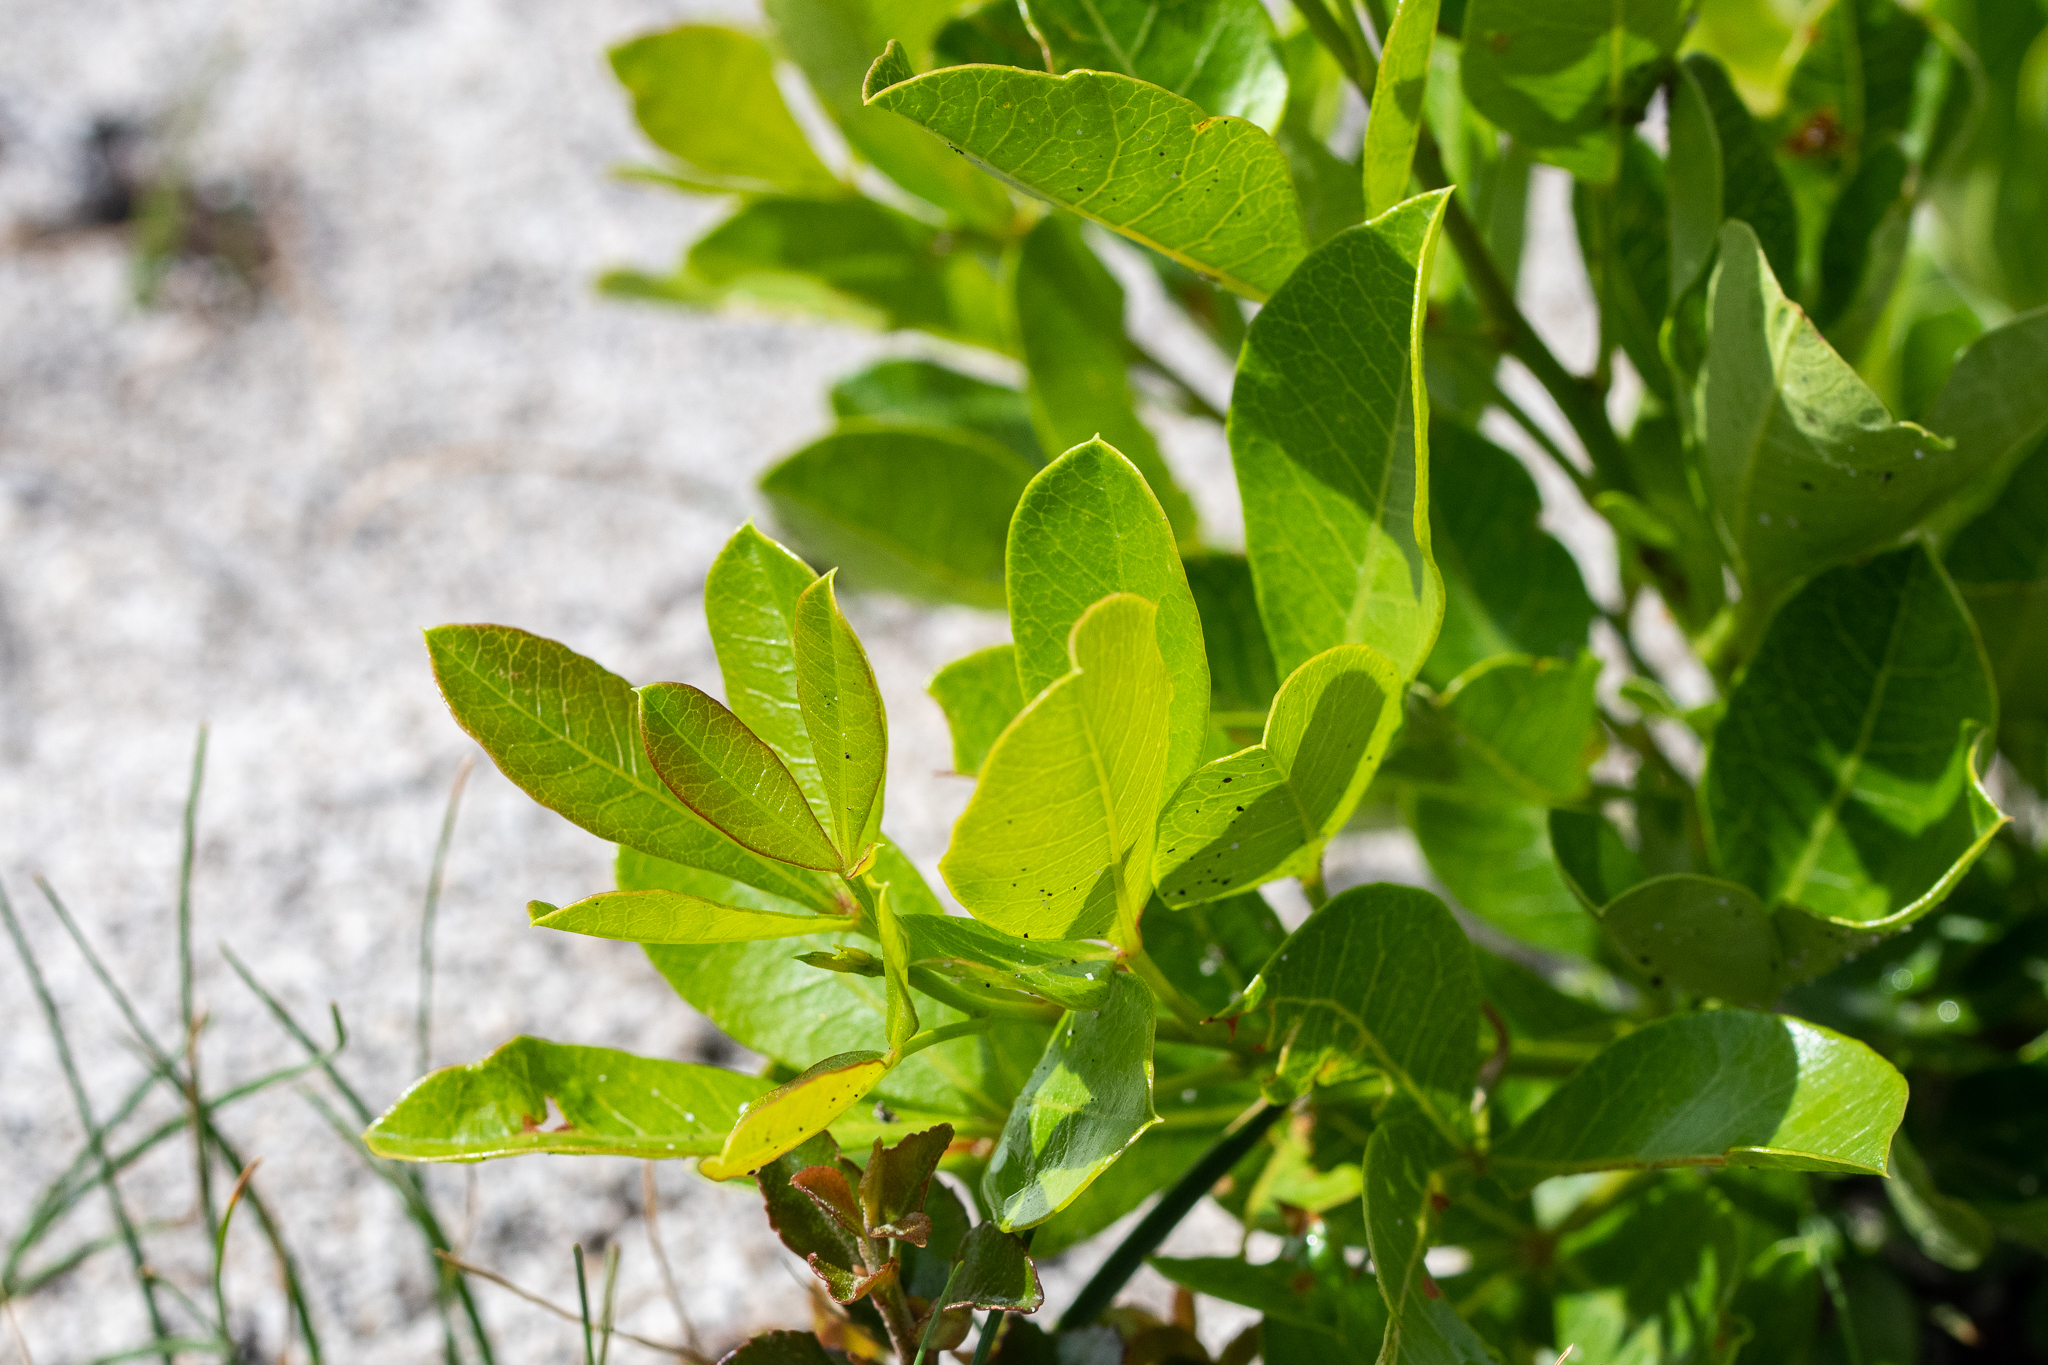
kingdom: Plantae
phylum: Tracheophyta
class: Magnoliopsida
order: Sapindales
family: Anacardiaceae
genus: Searsia
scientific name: Searsia laevigata
